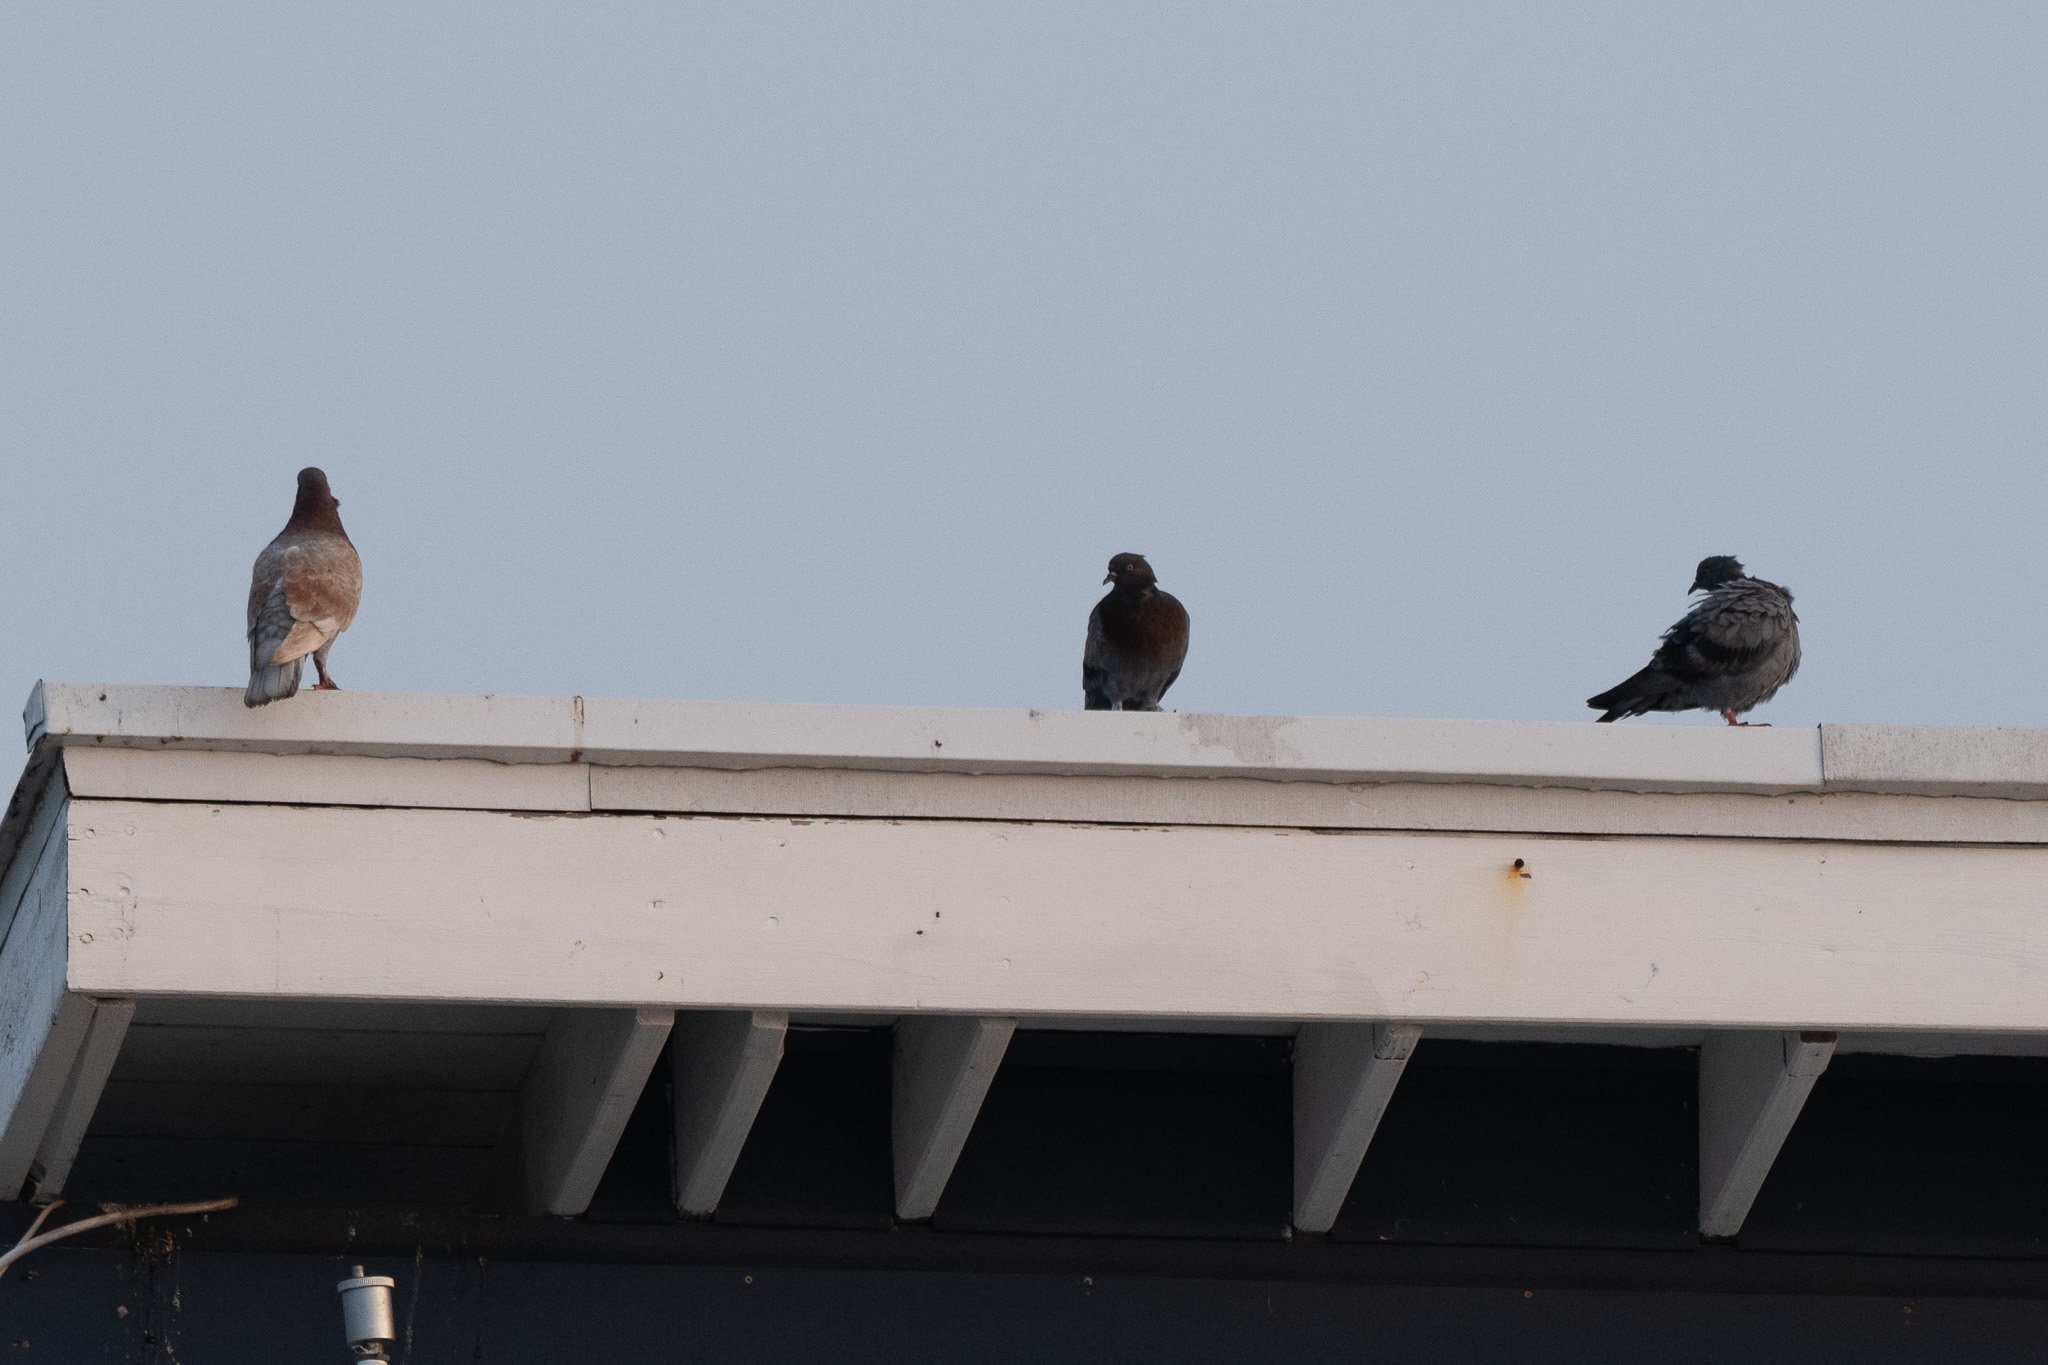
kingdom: Animalia
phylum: Chordata
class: Aves
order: Columbiformes
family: Columbidae
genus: Columba
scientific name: Columba livia
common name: Rock pigeon
